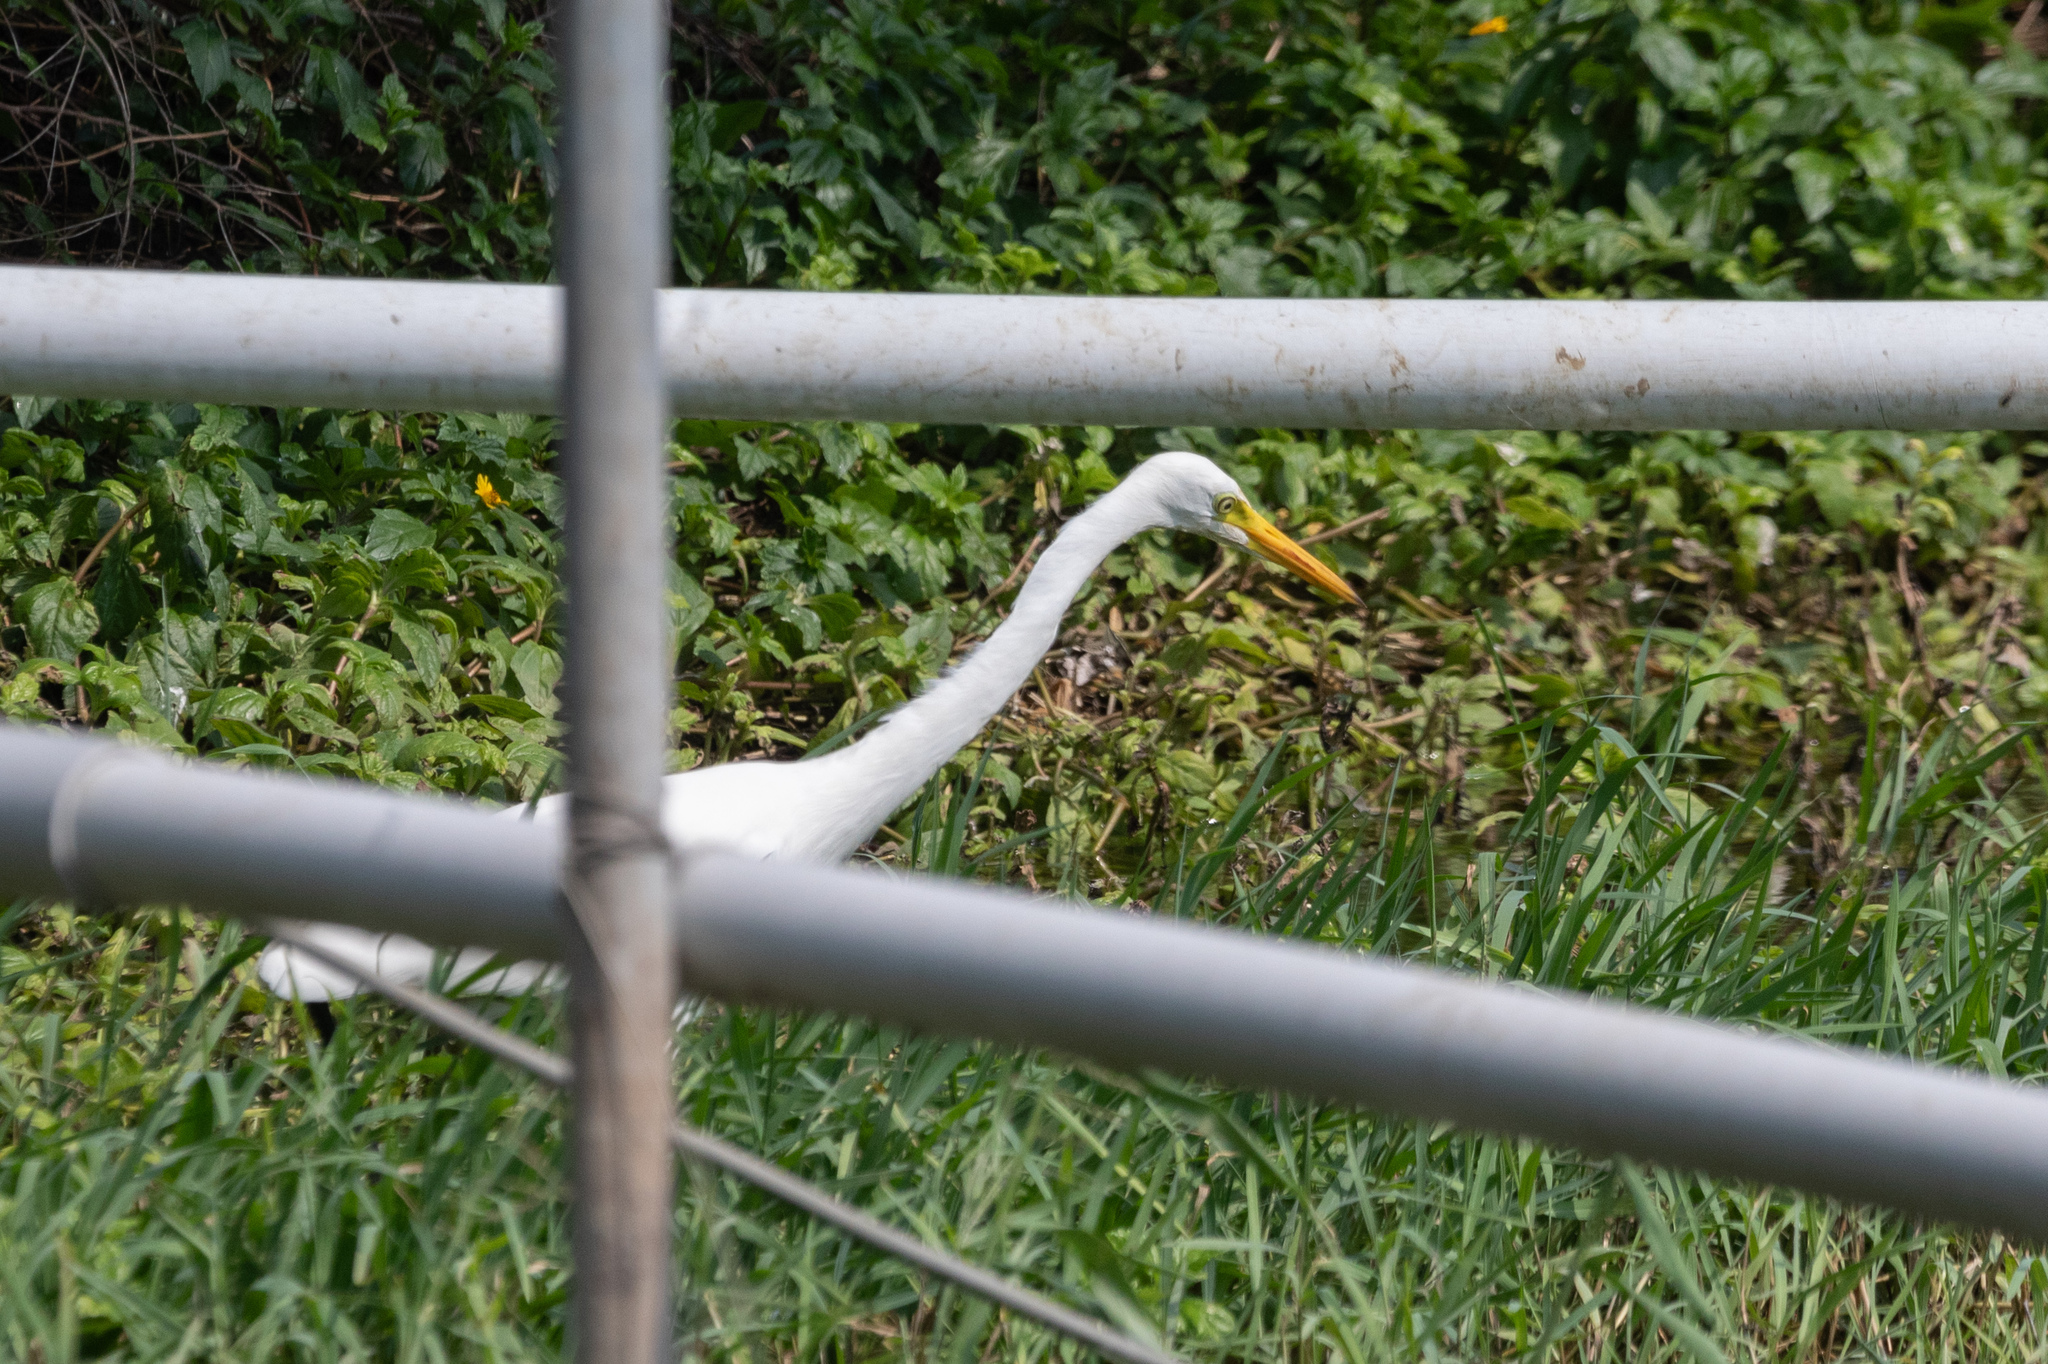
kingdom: Animalia
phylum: Chordata
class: Aves
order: Pelecaniformes
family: Ardeidae
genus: Egretta
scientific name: Egretta intermedia
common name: Intermediate egret
